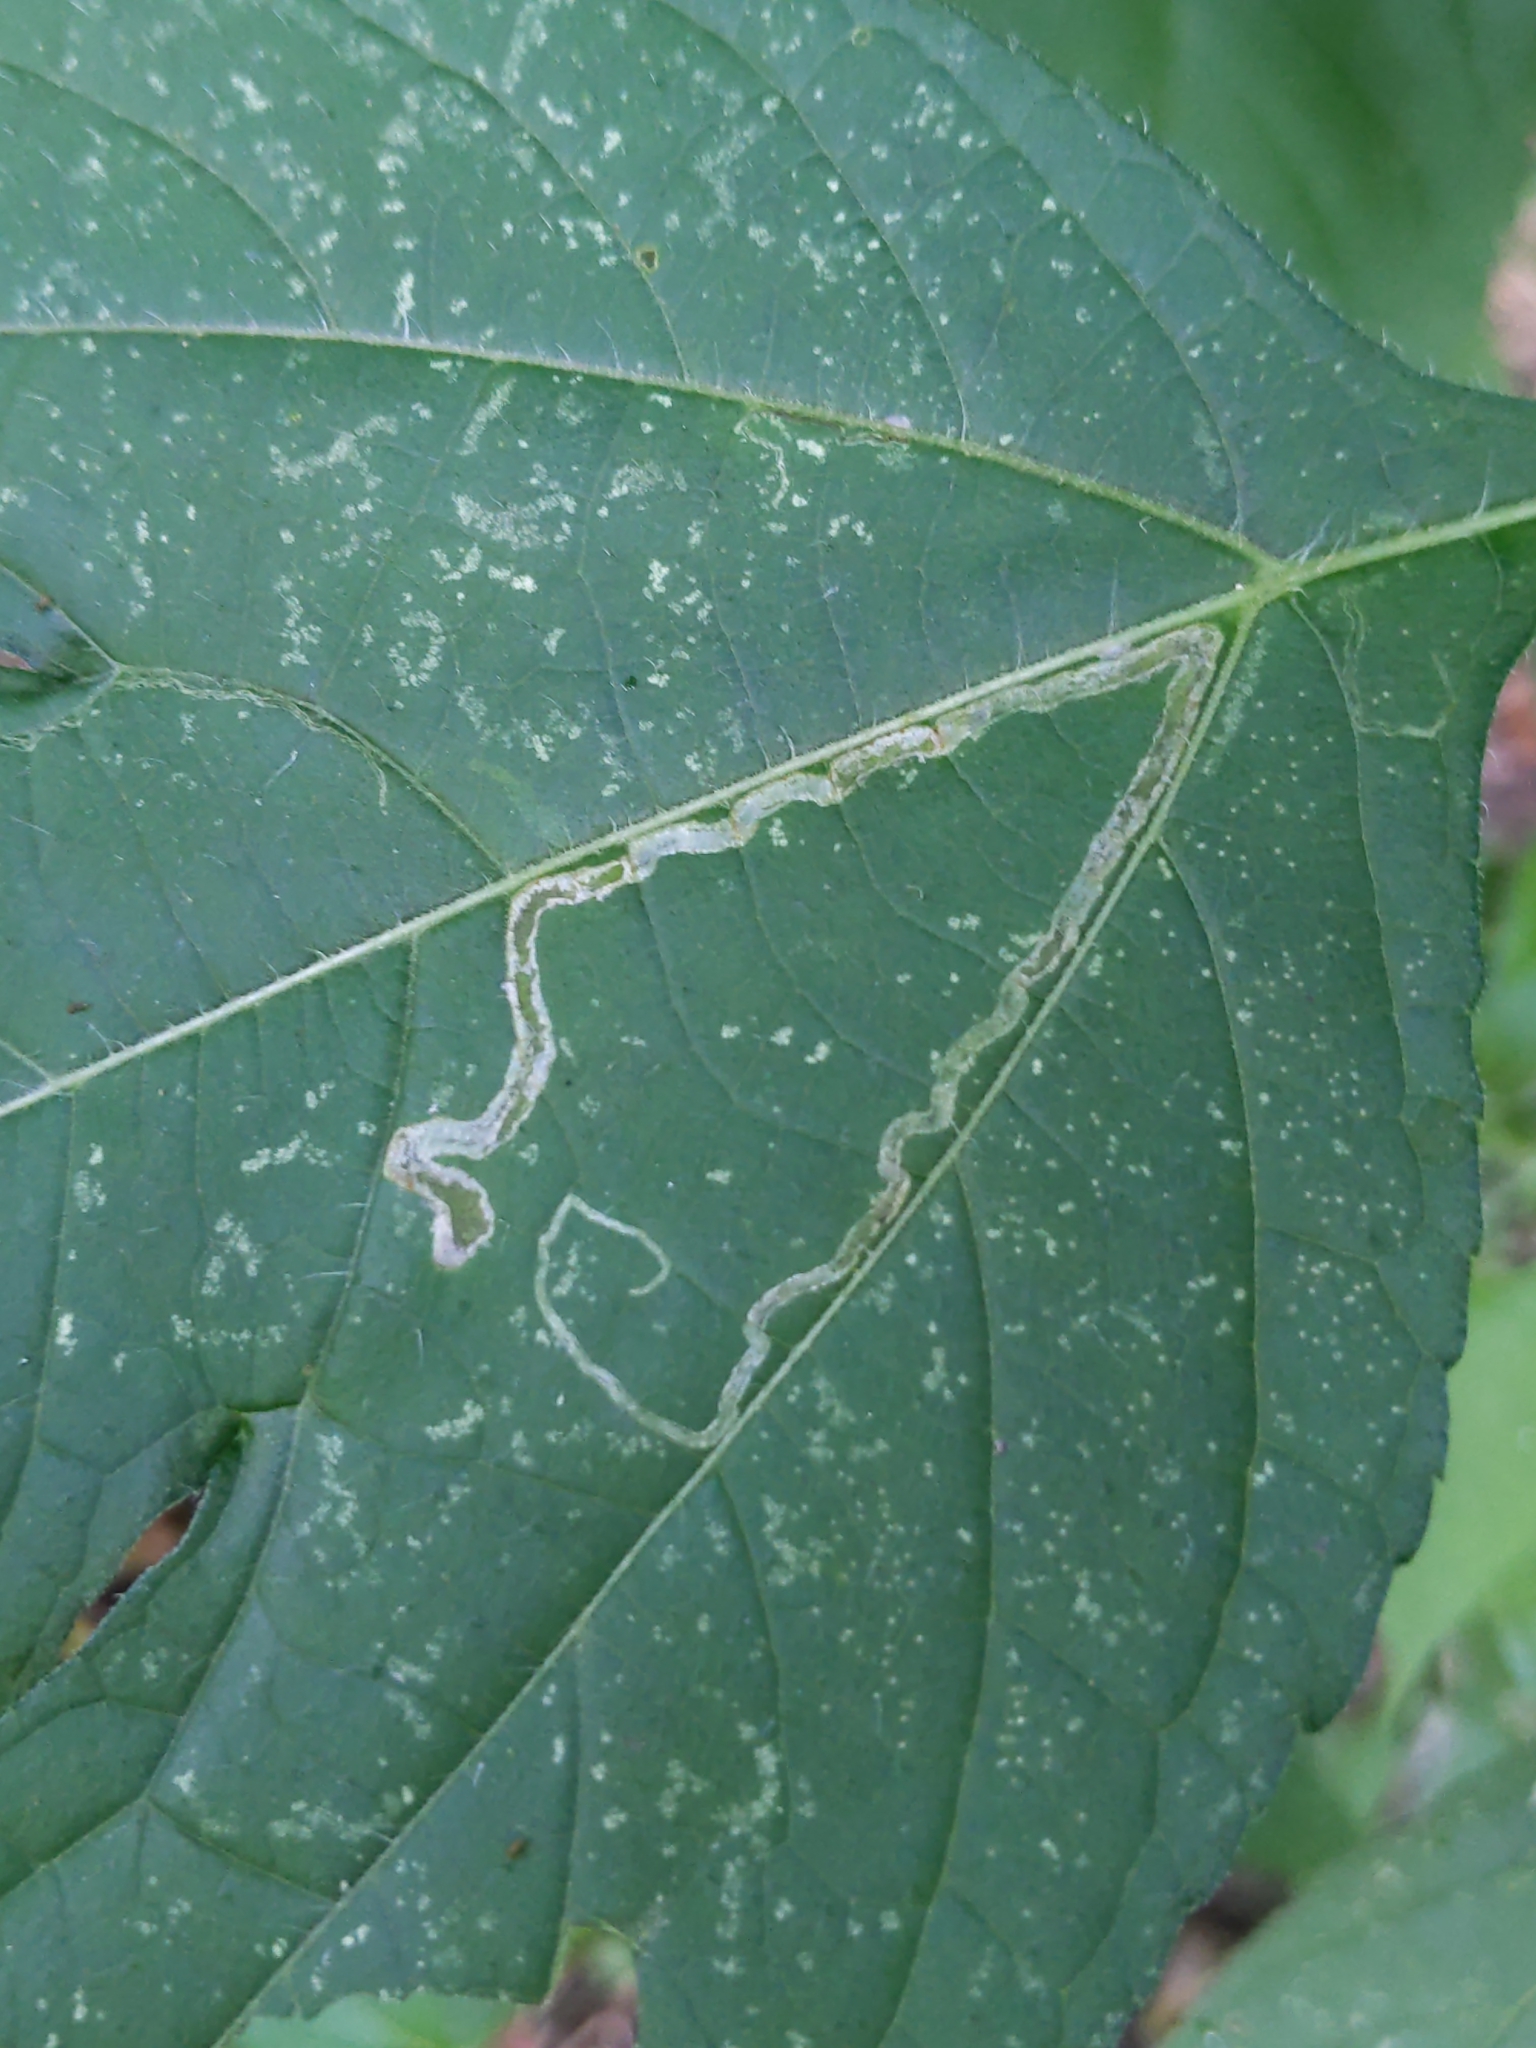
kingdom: Animalia
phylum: Arthropoda
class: Insecta
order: Diptera
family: Agromyzidae
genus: Liriomyza
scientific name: Liriomyza
